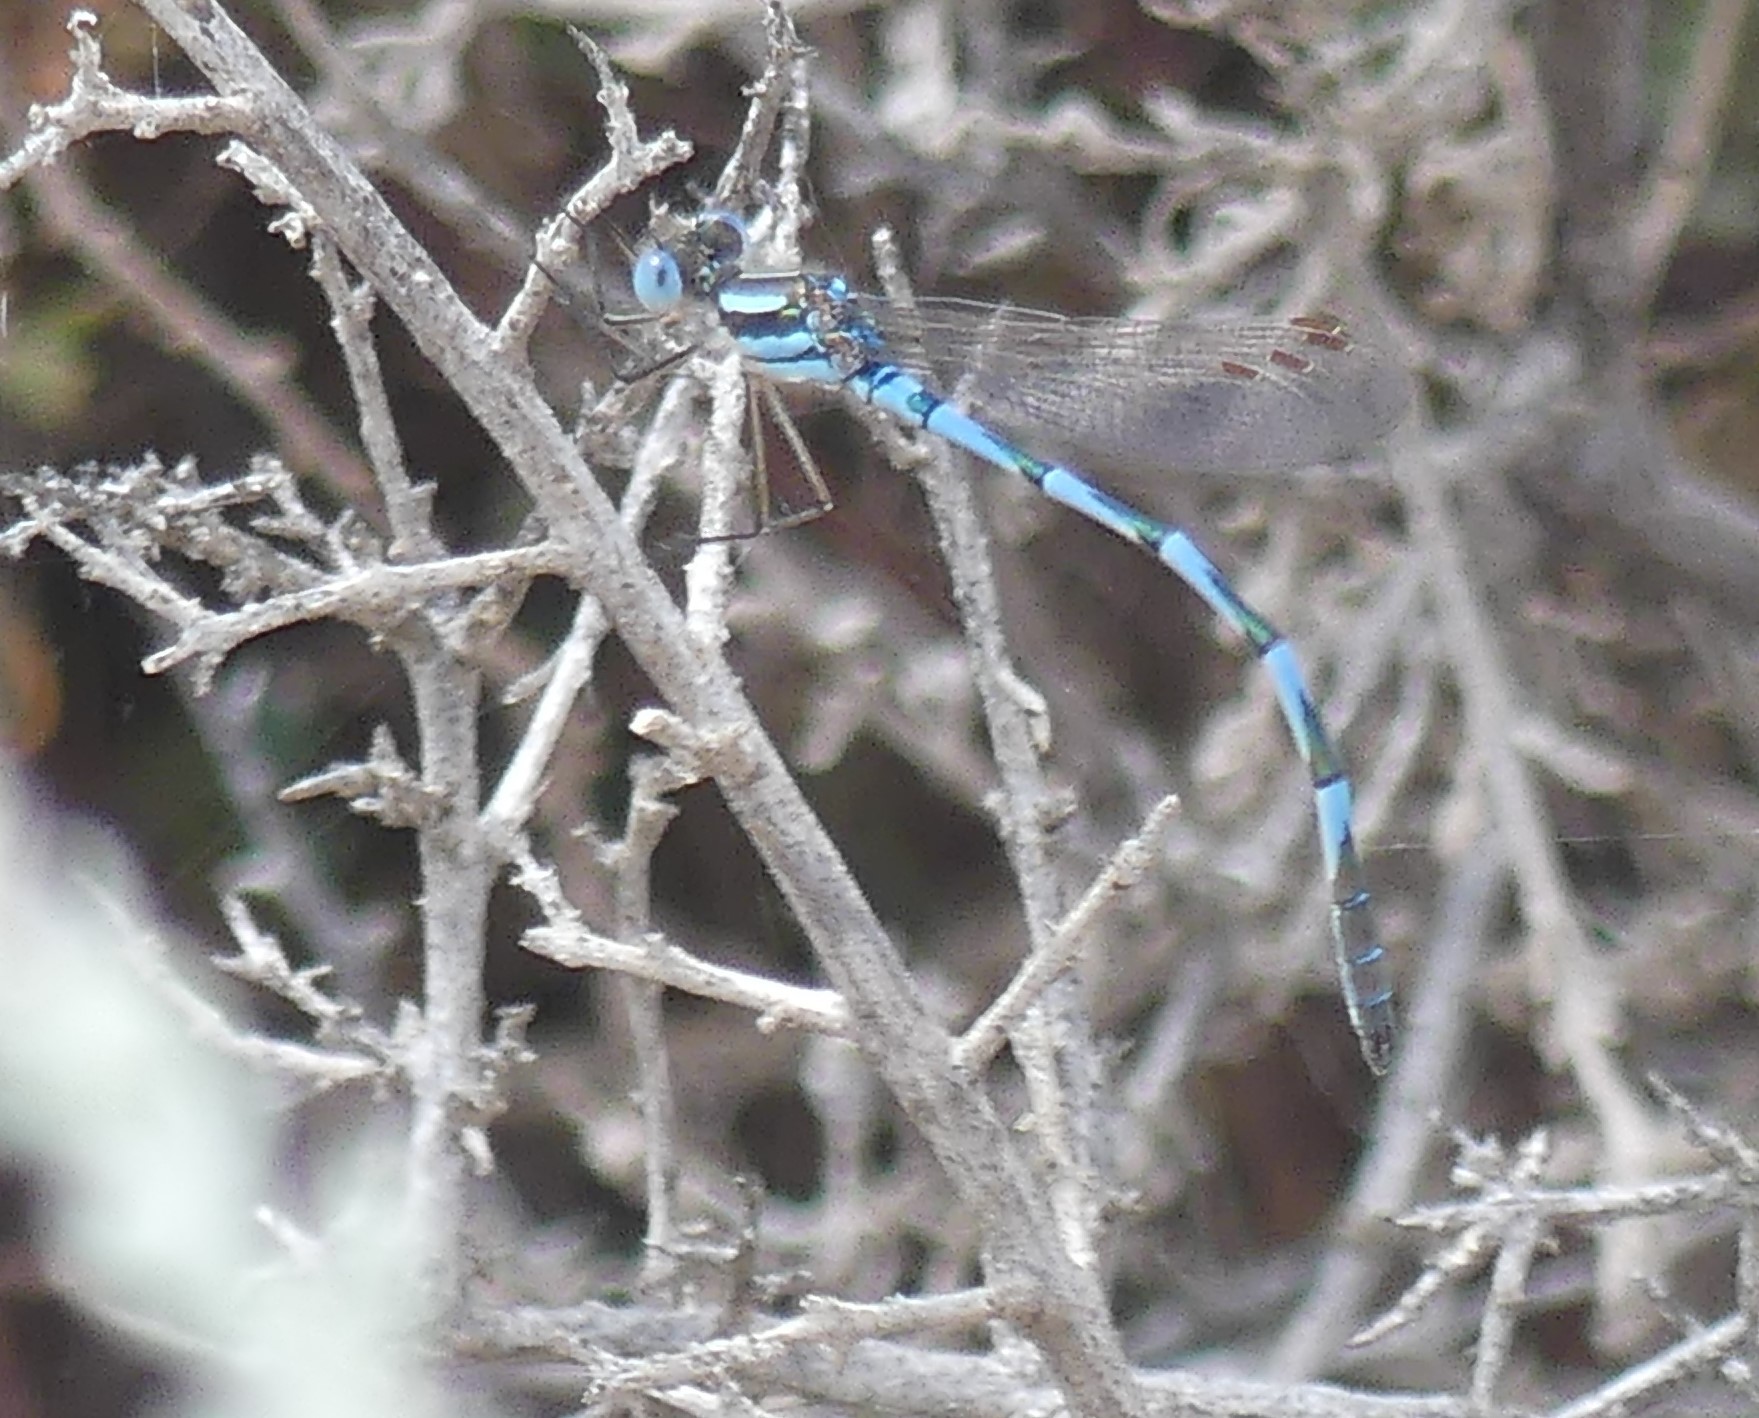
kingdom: Animalia
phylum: Arthropoda
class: Insecta
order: Odonata
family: Lestidae
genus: Austrolestes
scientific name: Austrolestes annulosus
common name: Blue ringtail
